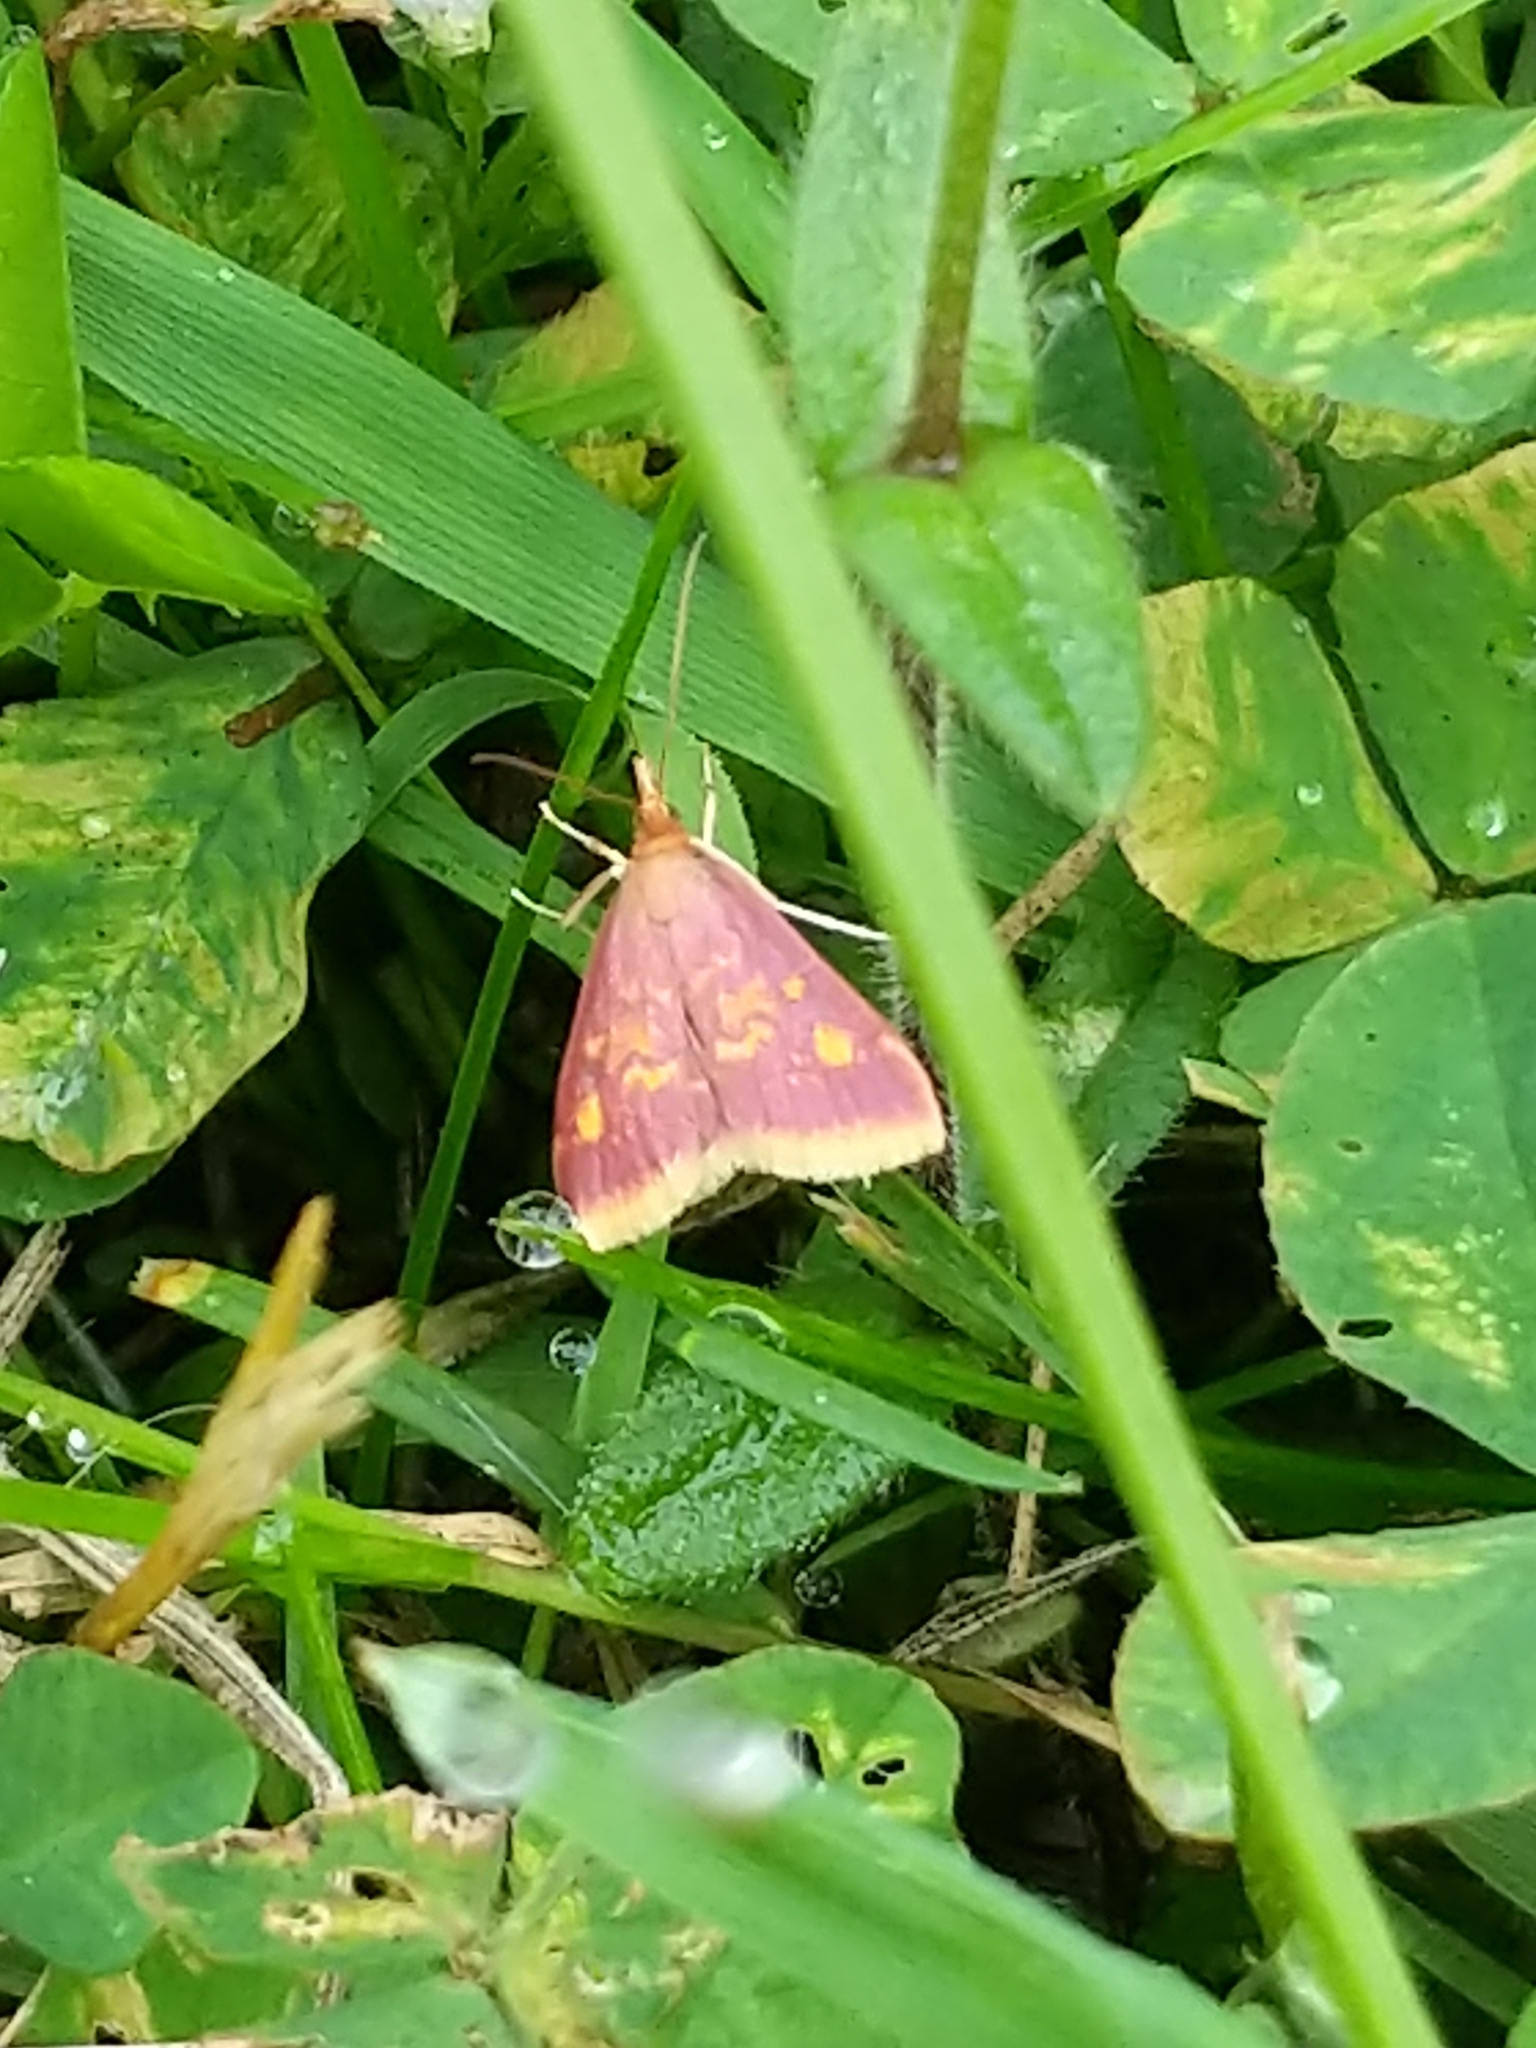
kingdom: Animalia
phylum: Arthropoda
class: Insecta
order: Lepidoptera
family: Crambidae
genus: Pyrausta
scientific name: Pyrausta acrionalis
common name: Mint-loving pyrausta moth
